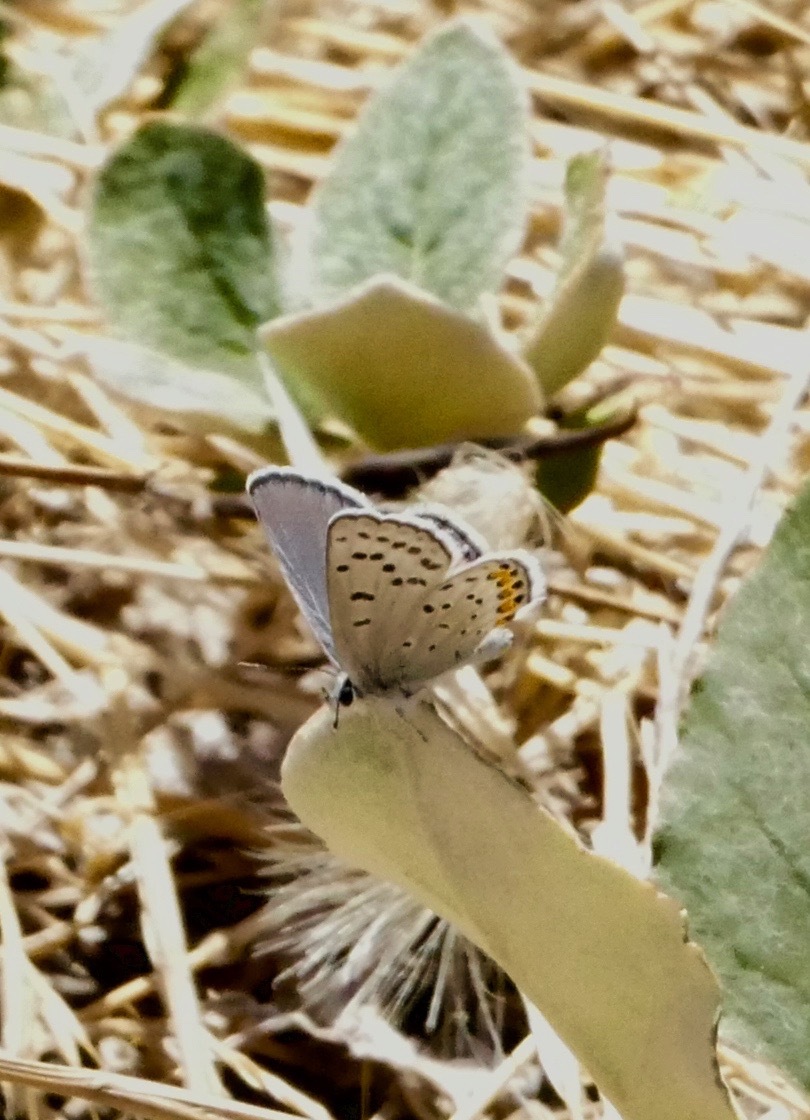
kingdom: Animalia
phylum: Arthropoda
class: Insecta
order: Lepidoptera
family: Lycaenidae
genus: Icaricia
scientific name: Icaricia acmon
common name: Acmon blue
